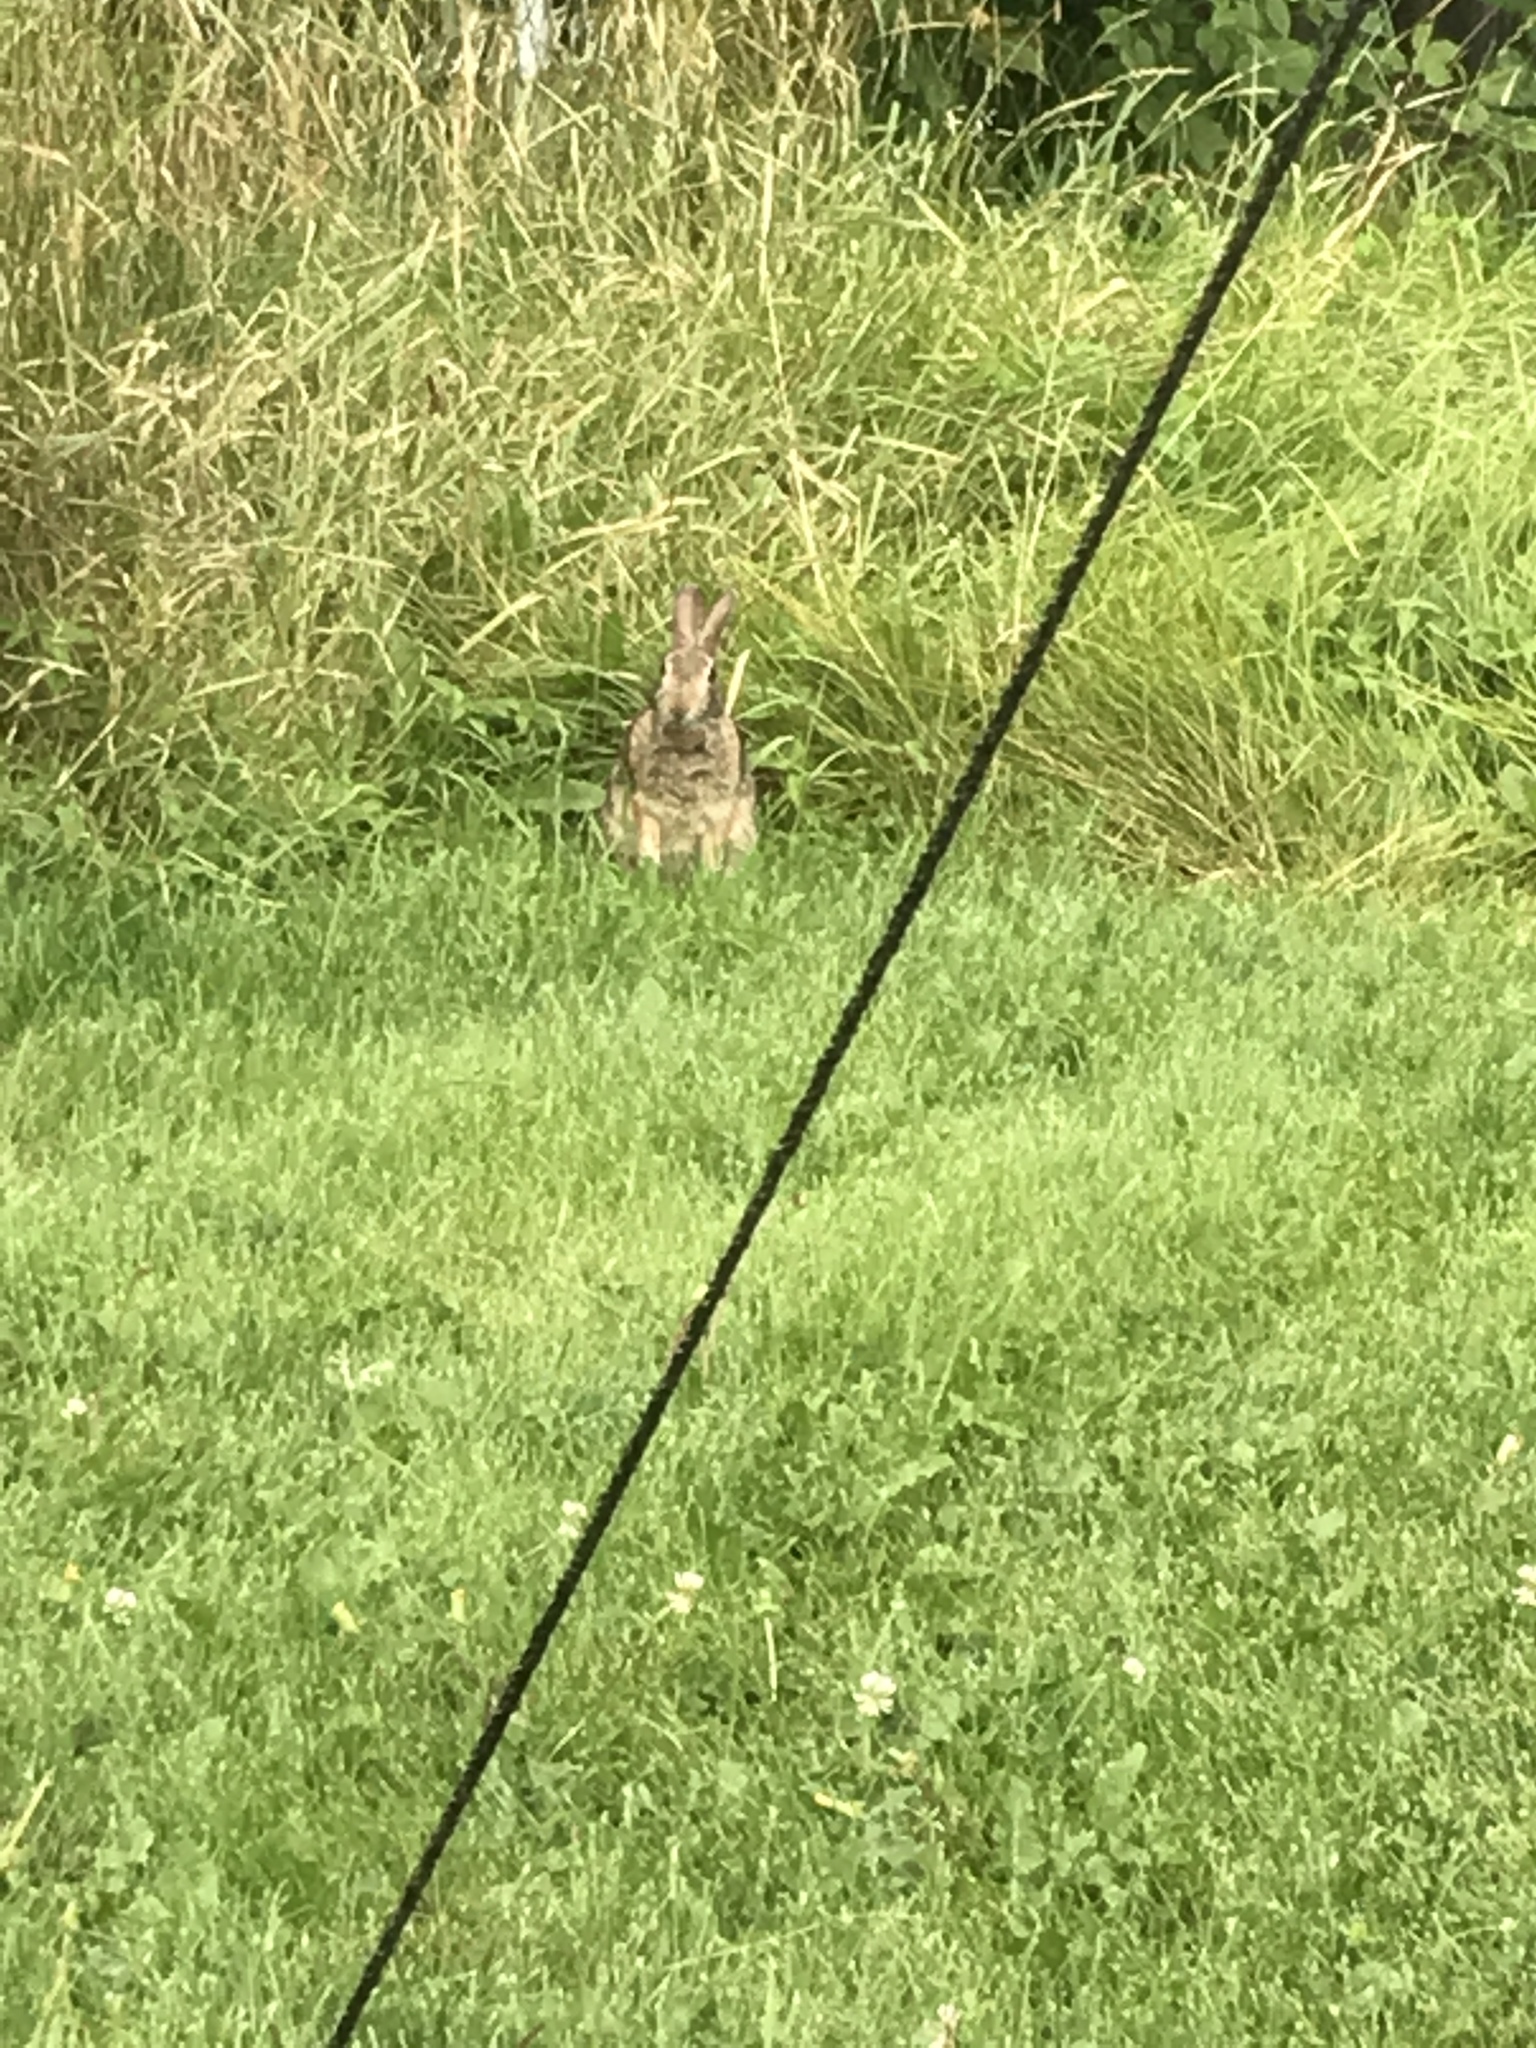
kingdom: Animalia
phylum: Chordata
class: Mammalia
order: Lagomorpha
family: Leporidae
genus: Sylvilagus
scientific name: Sylvilagus floridanus
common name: Eastern cottontail
